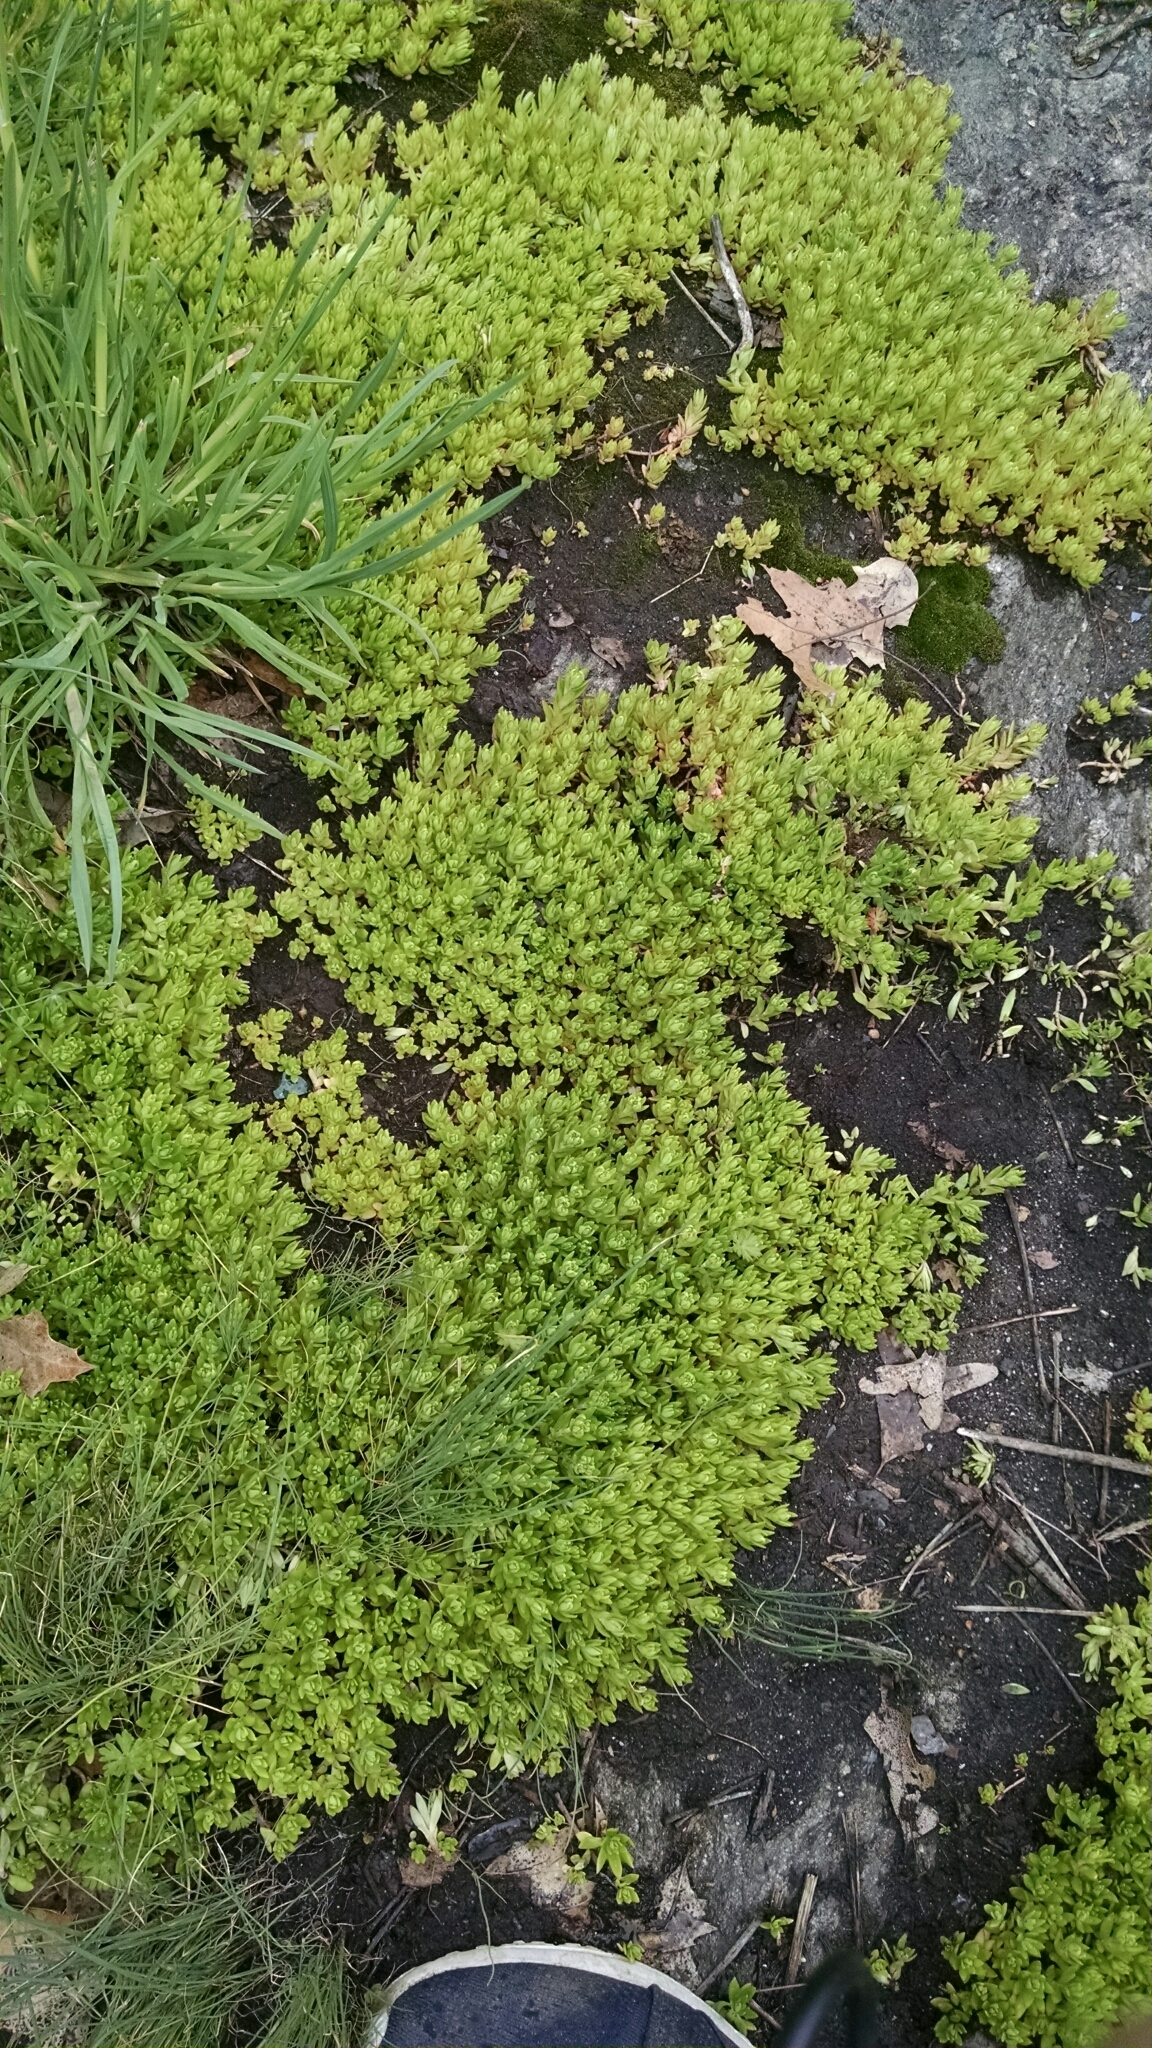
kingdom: Plantae
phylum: Tracheophyta
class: Magnoliopsida
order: Saxifragales
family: Crassulaceae
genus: Sedum
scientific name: Sedum sarmentosum
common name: Stringy stonecrop
